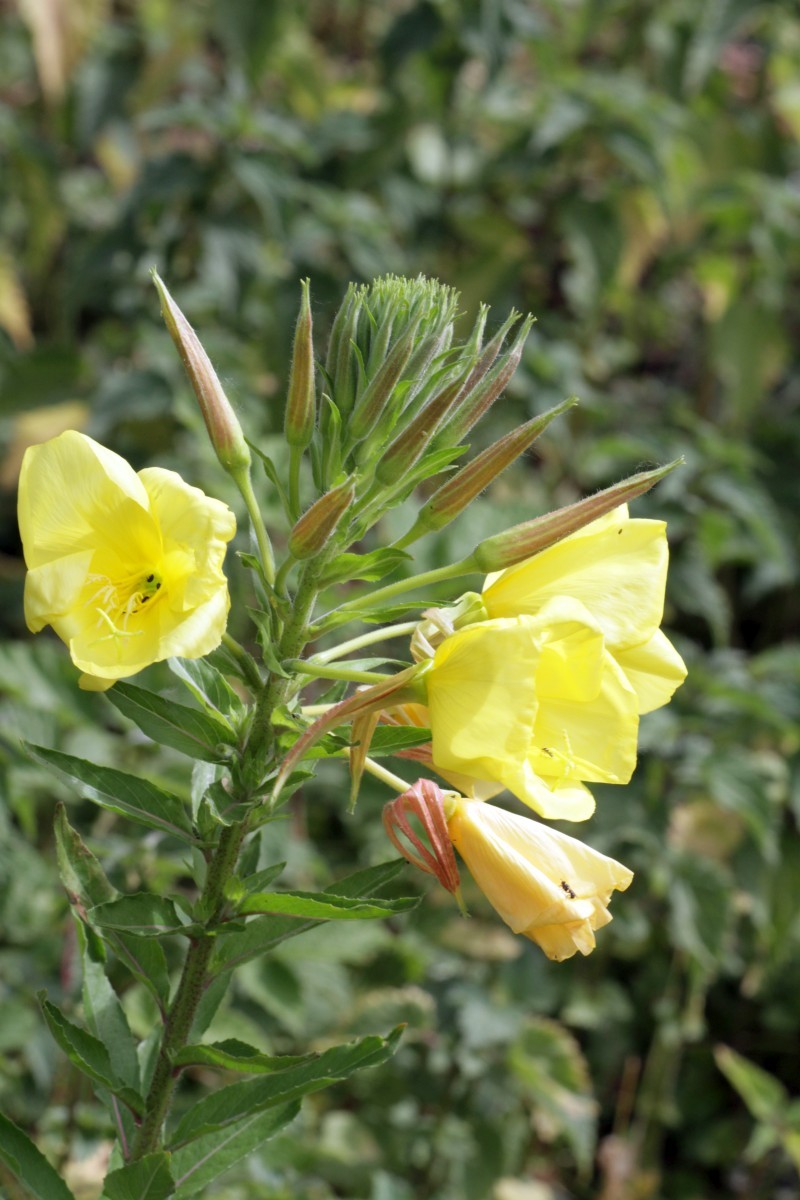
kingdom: Plantae
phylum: Tracheophyta
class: Magnoliopsida
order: Myrtales
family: Onagraceae
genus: Oenothera
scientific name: Oenothera glazioviana
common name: Large-flowered evening-primrose
